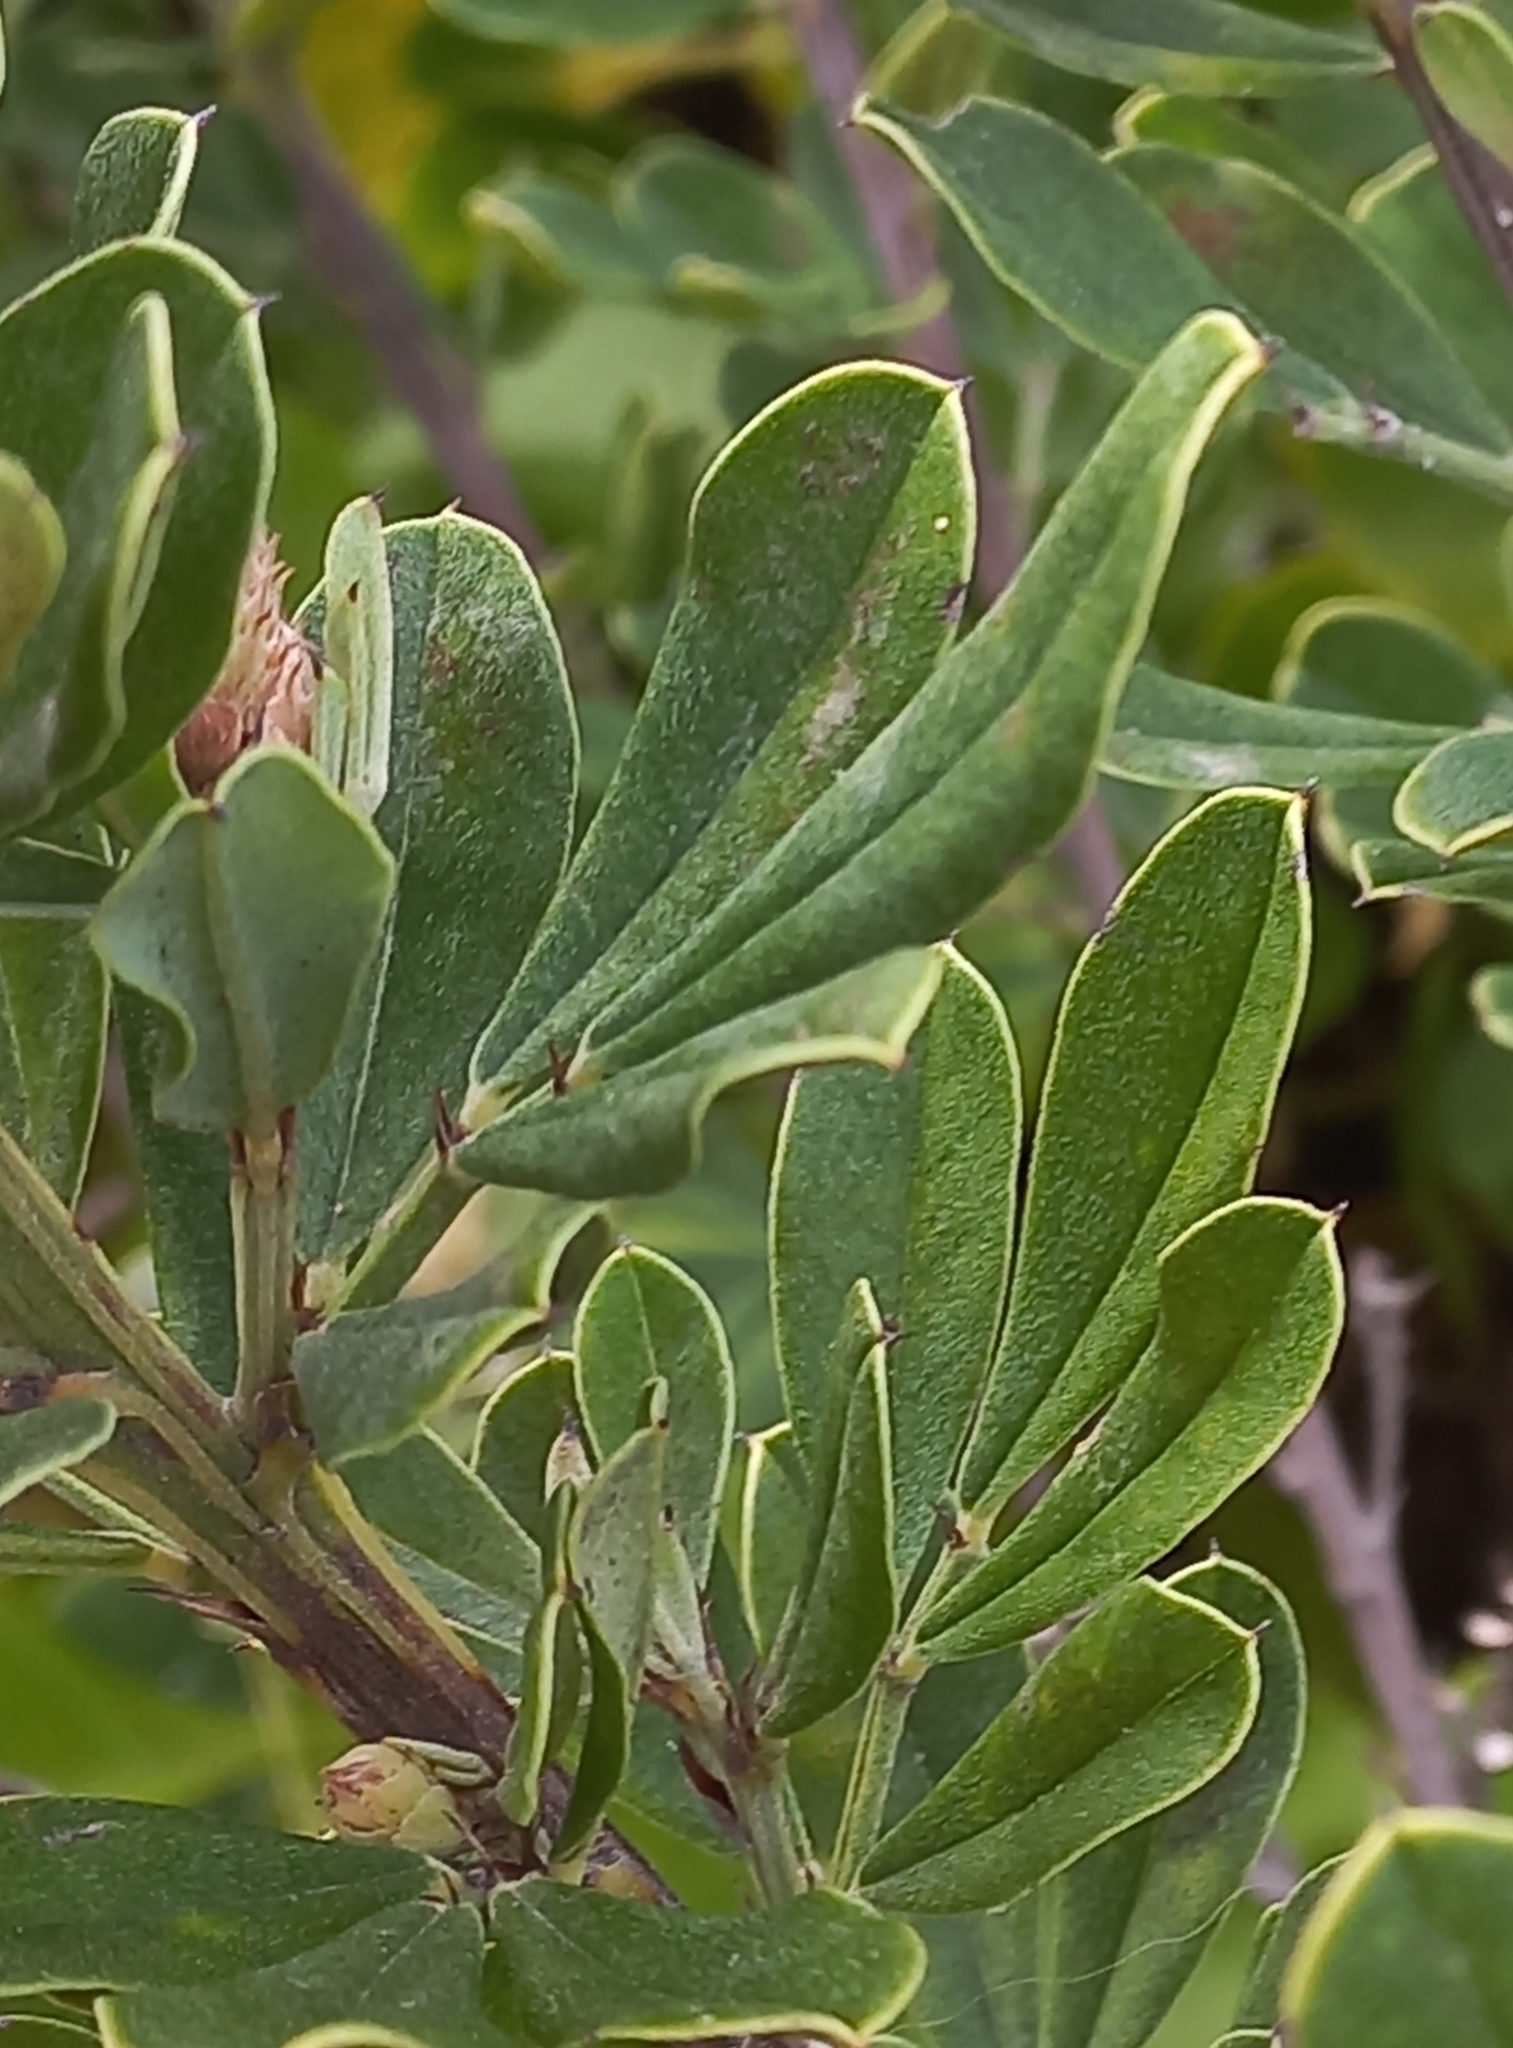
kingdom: Plantae
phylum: Tracheophyta
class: Magnoliopsida
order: Fabales
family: Fabaceae
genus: Indigofera
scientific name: Indigofera cytisoides
